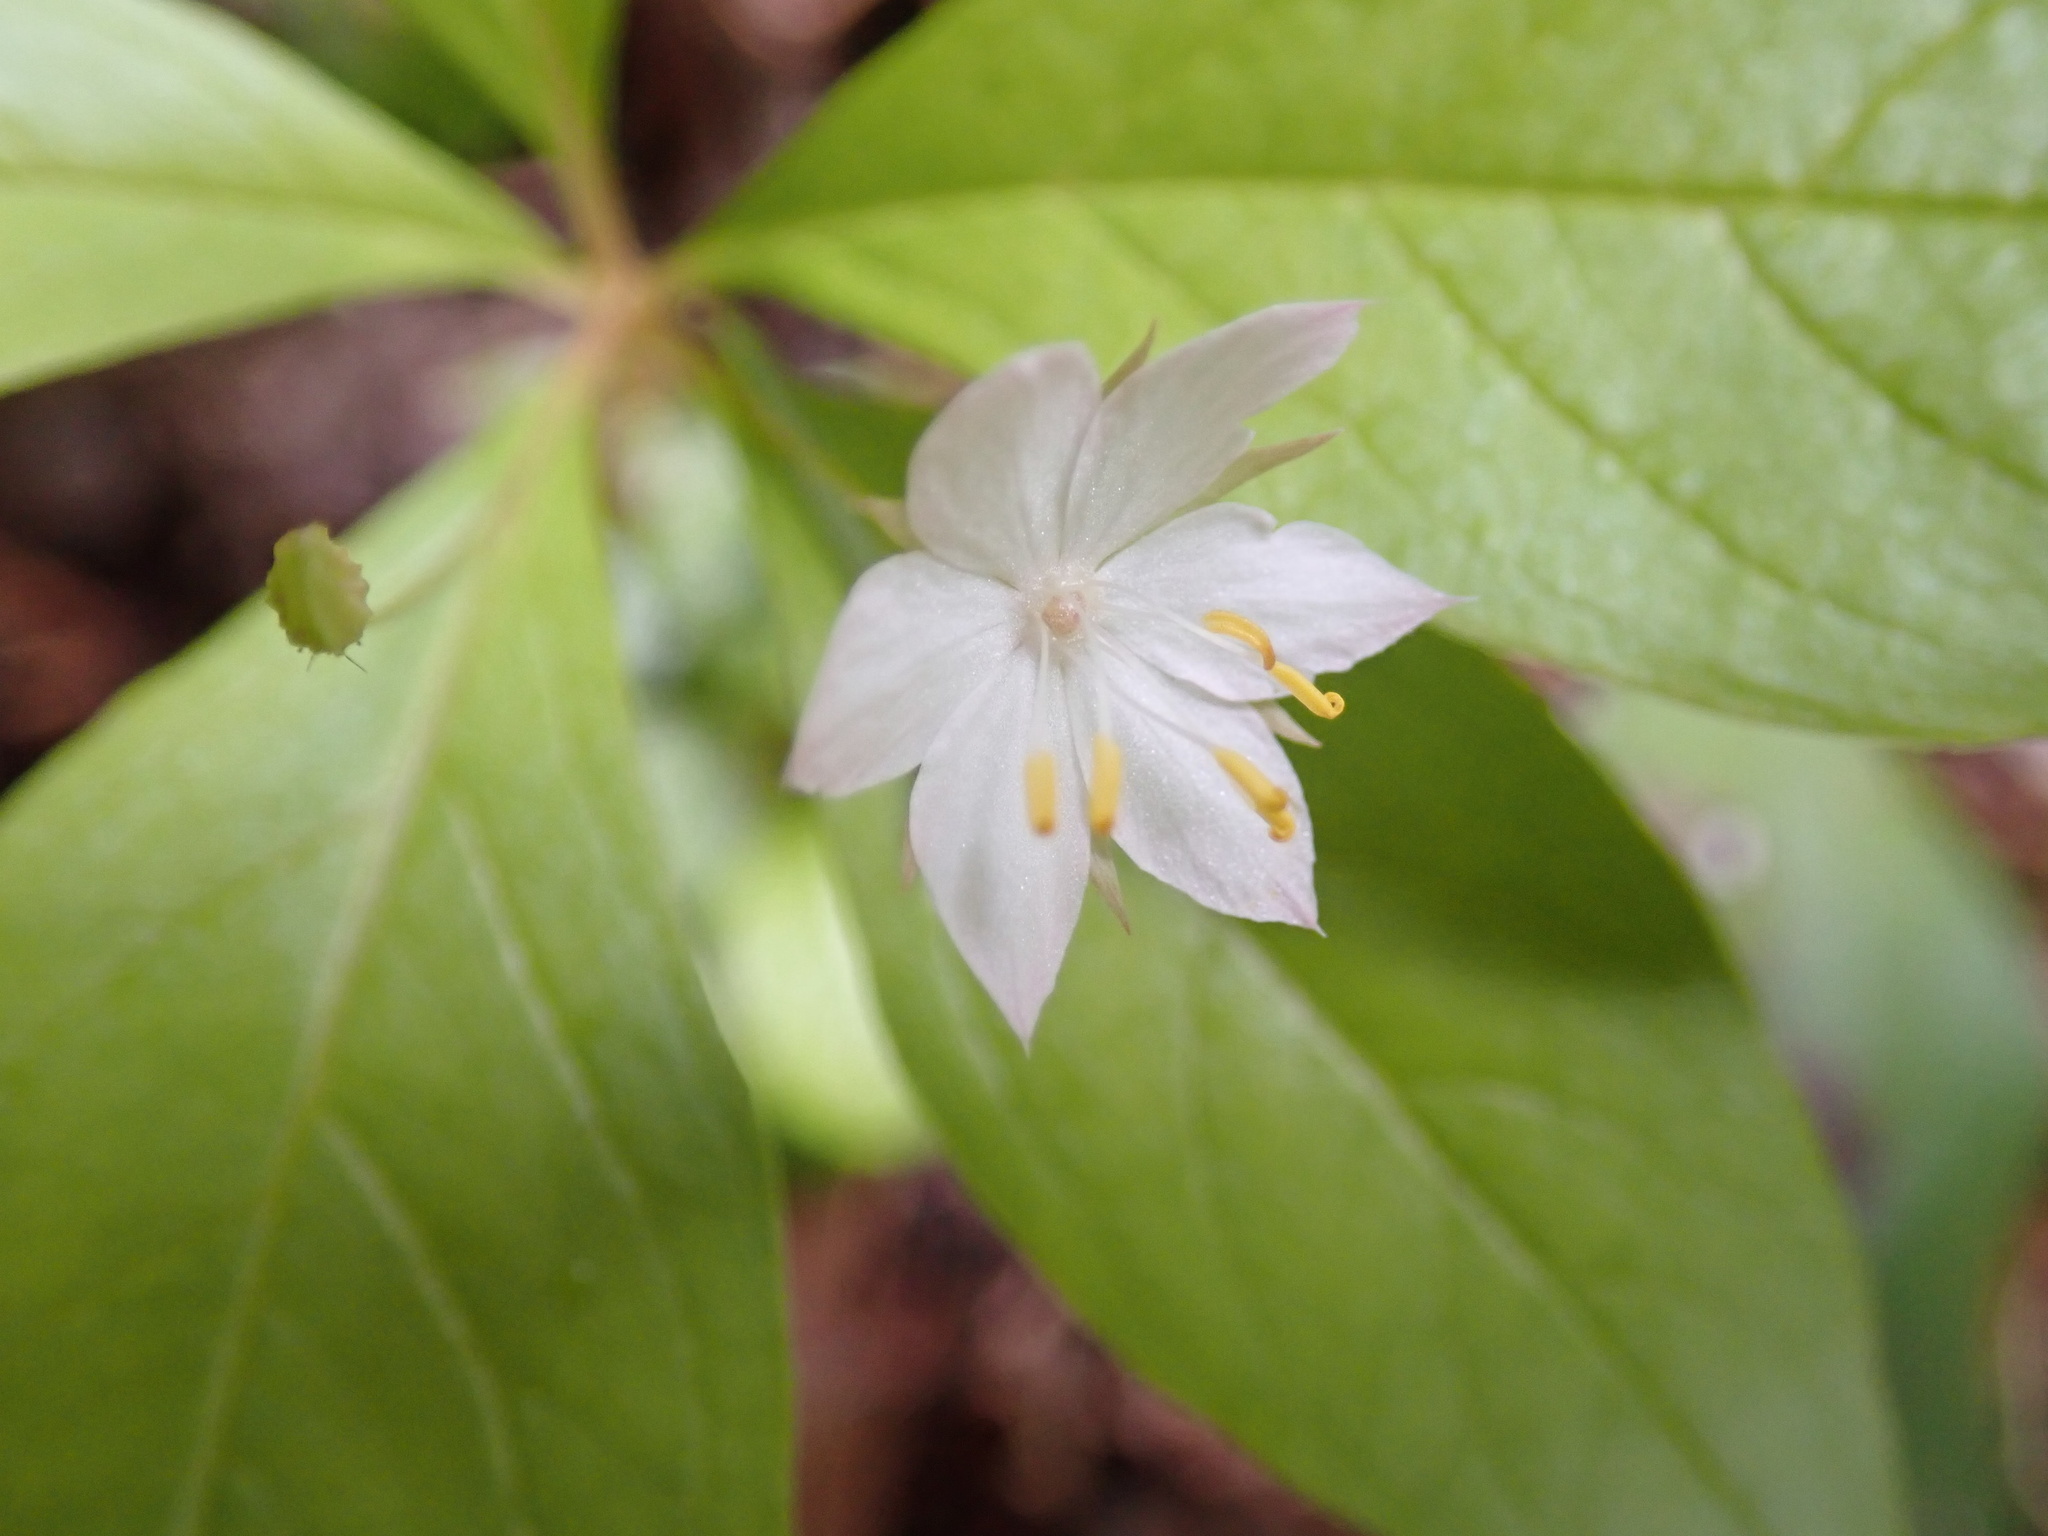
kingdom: Plantae
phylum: Tracheophyta
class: Magnoliopsida
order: Ericales
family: Primulaceae
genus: Lysimachia
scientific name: Lysimachia latifolia
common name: Pacific starflower
